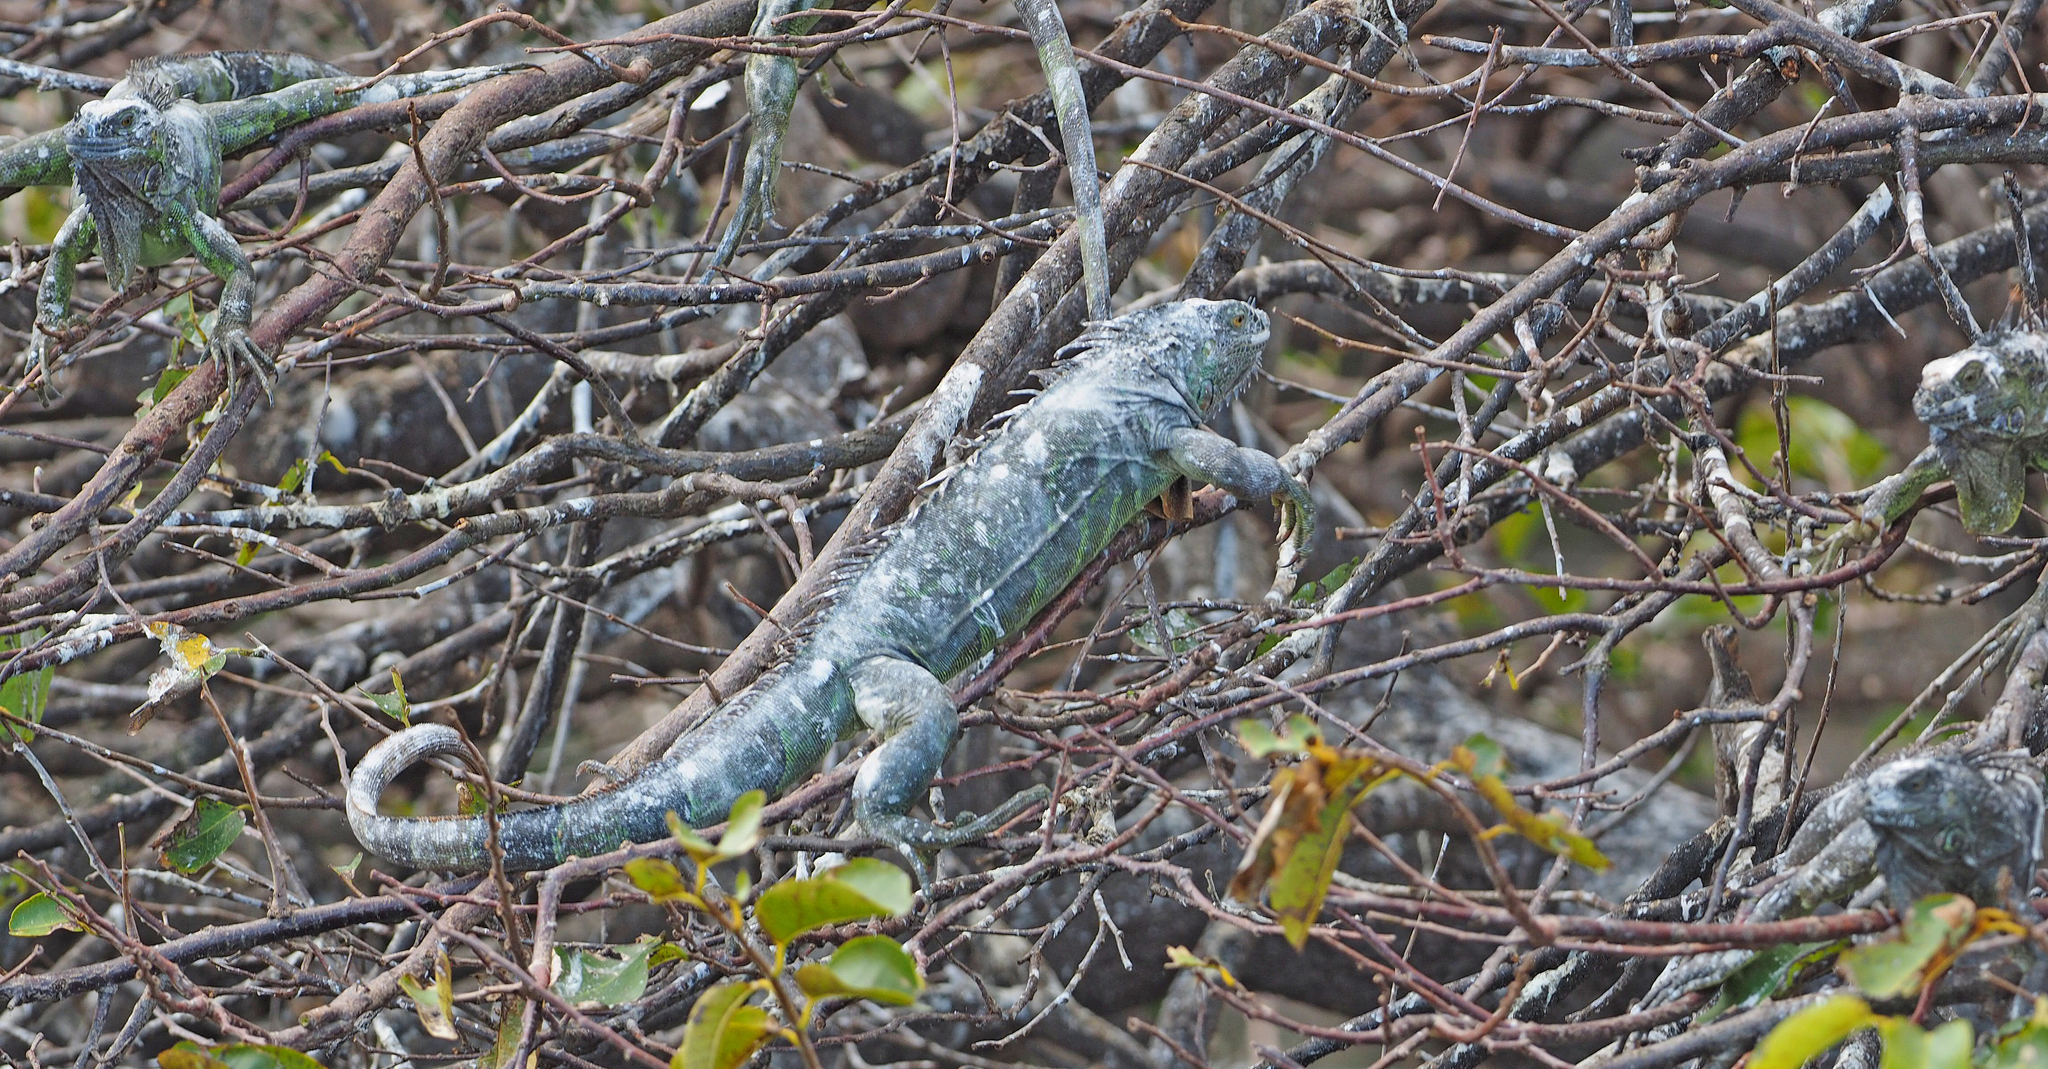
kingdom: Animalia
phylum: Chordata
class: Squamata
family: Iguanidae
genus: Iguana
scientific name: Iguana iguana
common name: Green iguana
